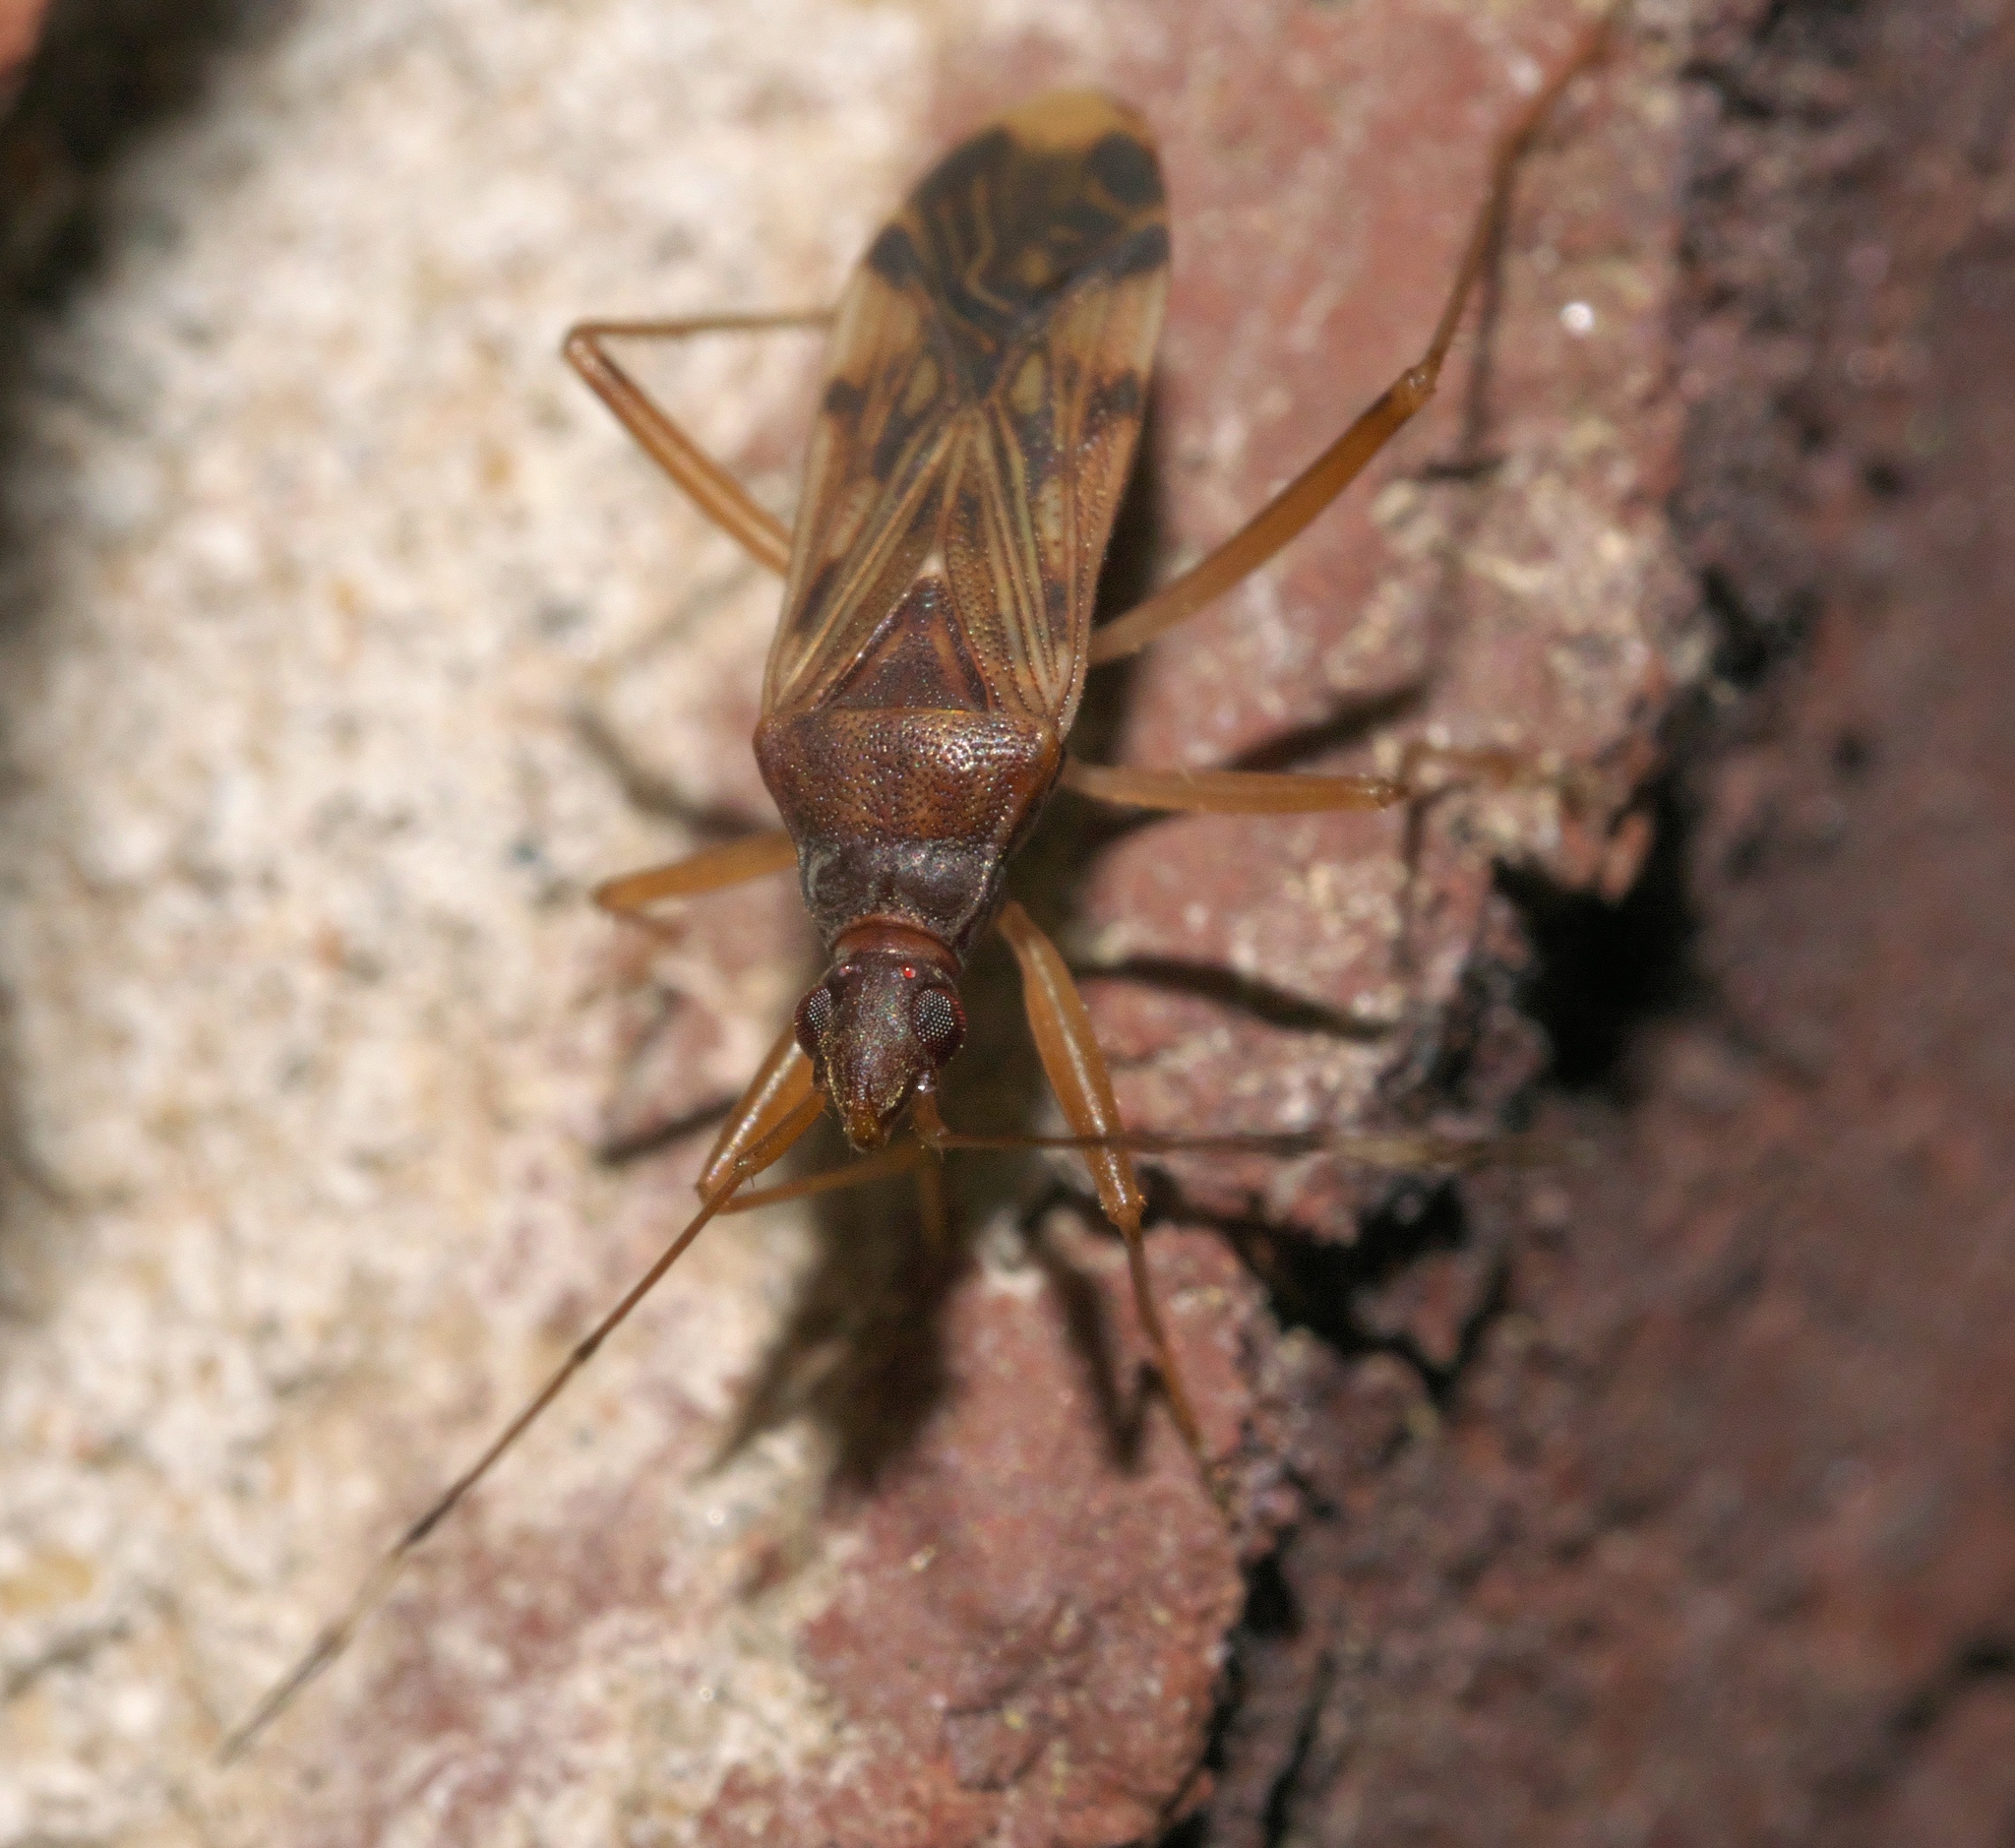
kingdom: Animalia
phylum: Arthropoda
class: Insecta
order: Hemiptera
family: Rhyparochromidae
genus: Ozophora
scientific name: Ozophora depicturata
